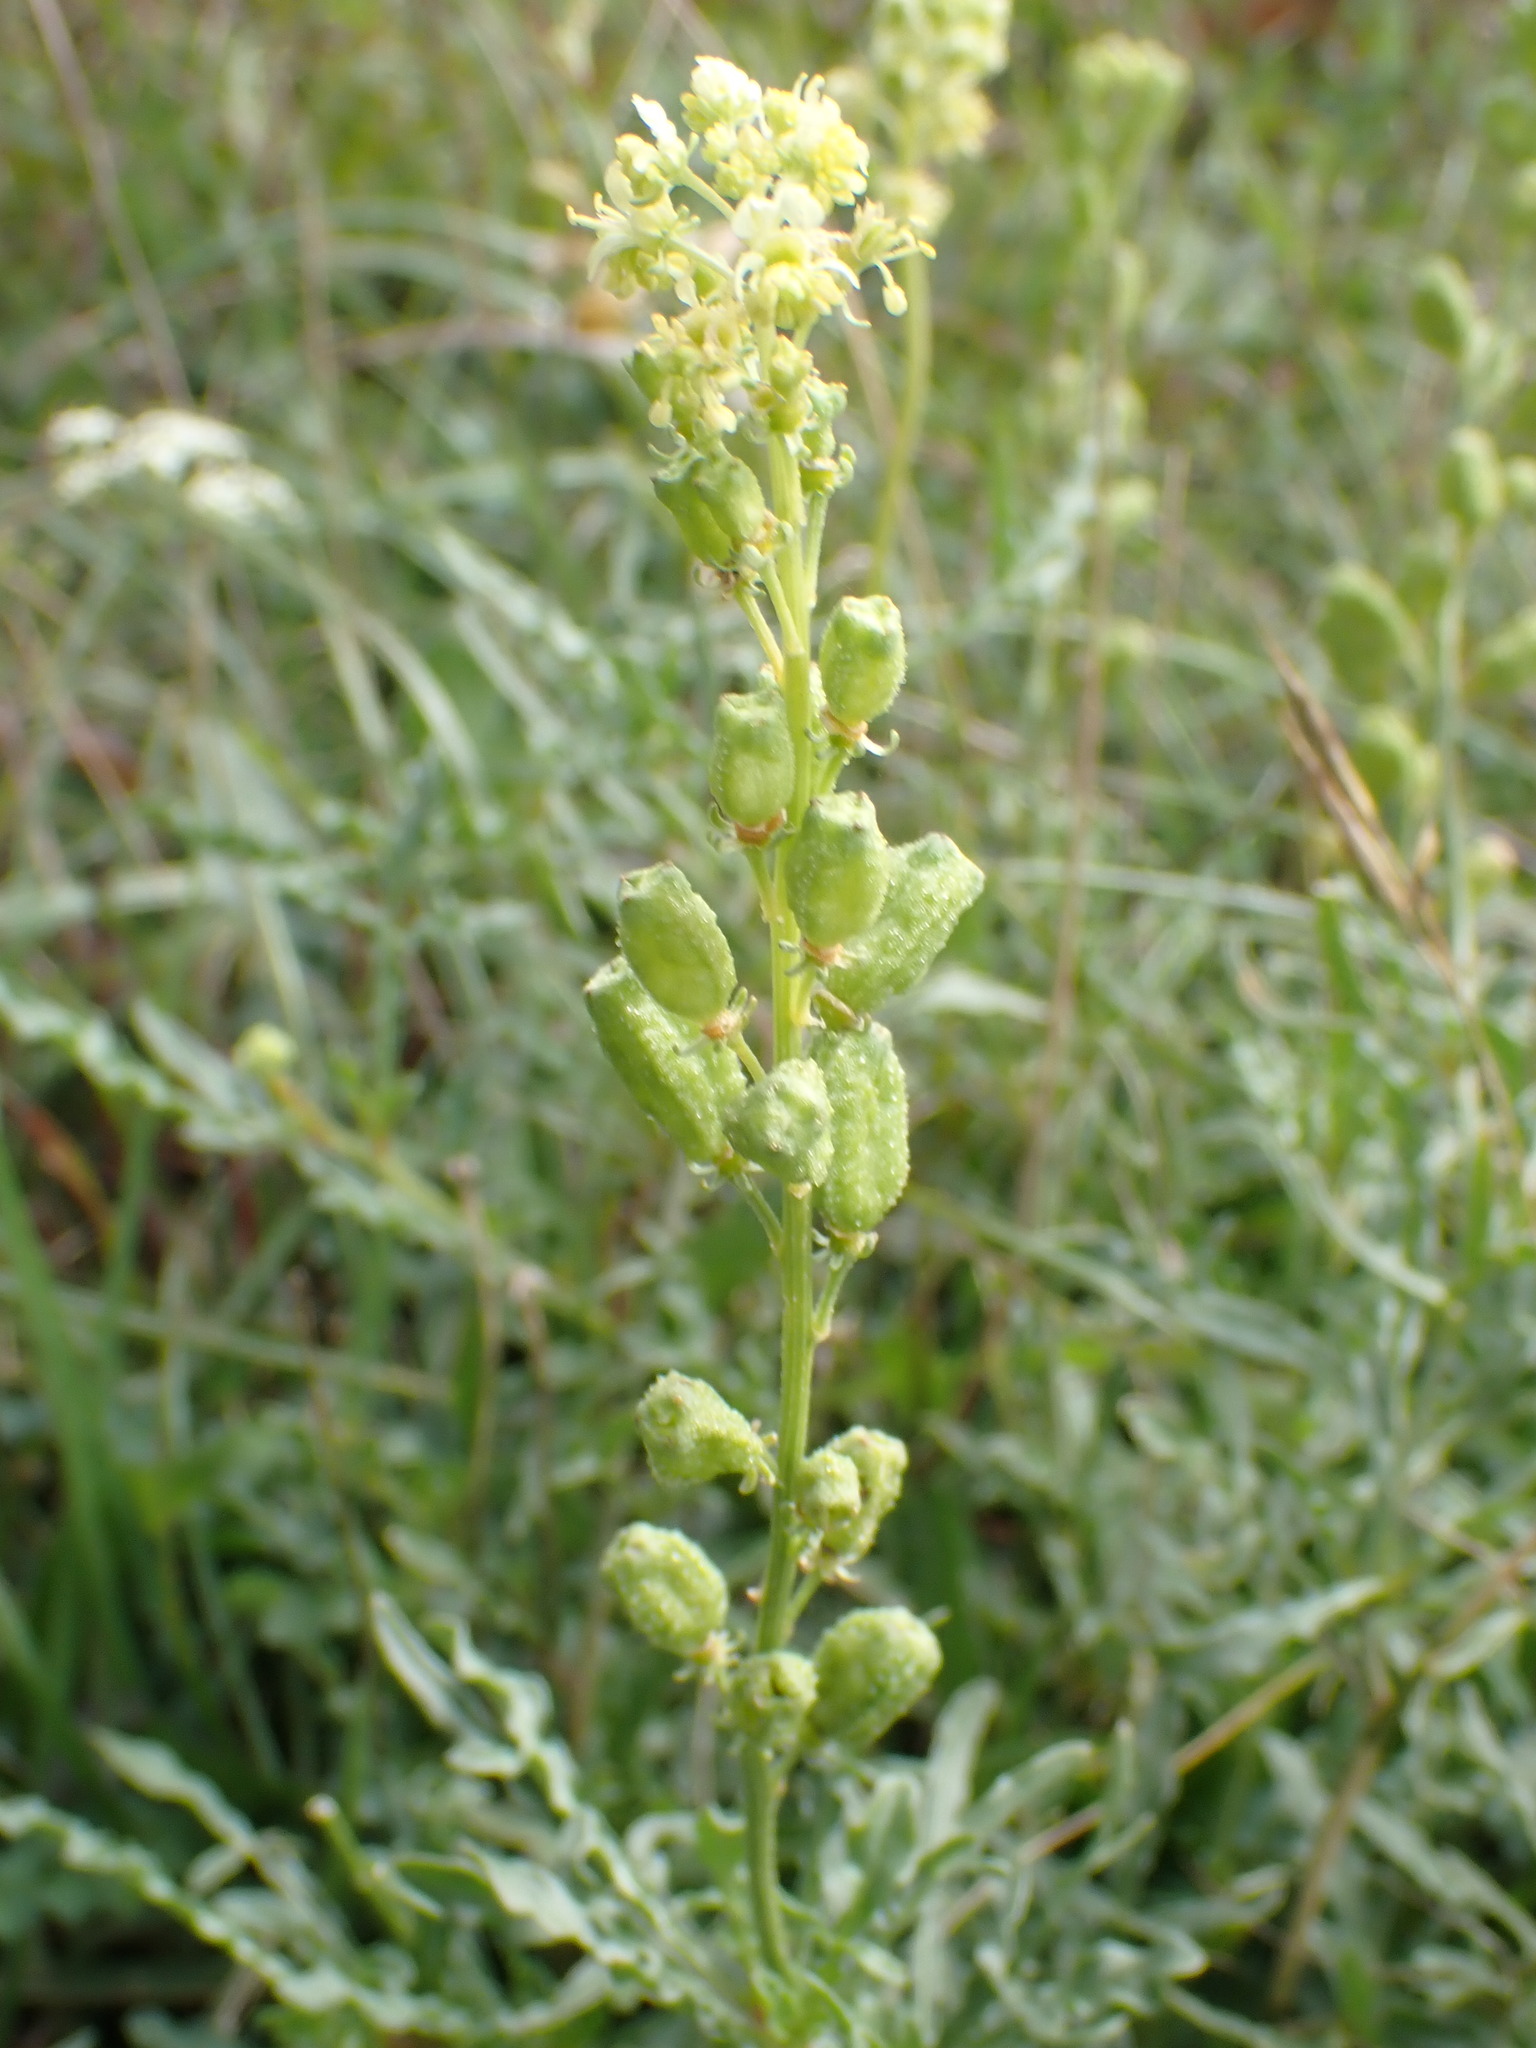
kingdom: Plantae
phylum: Tracheophyta
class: Magnoliopsida
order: Brassicales
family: Resedaceae
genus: Reseda
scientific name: Reseda lutea
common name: Wild mignonette
